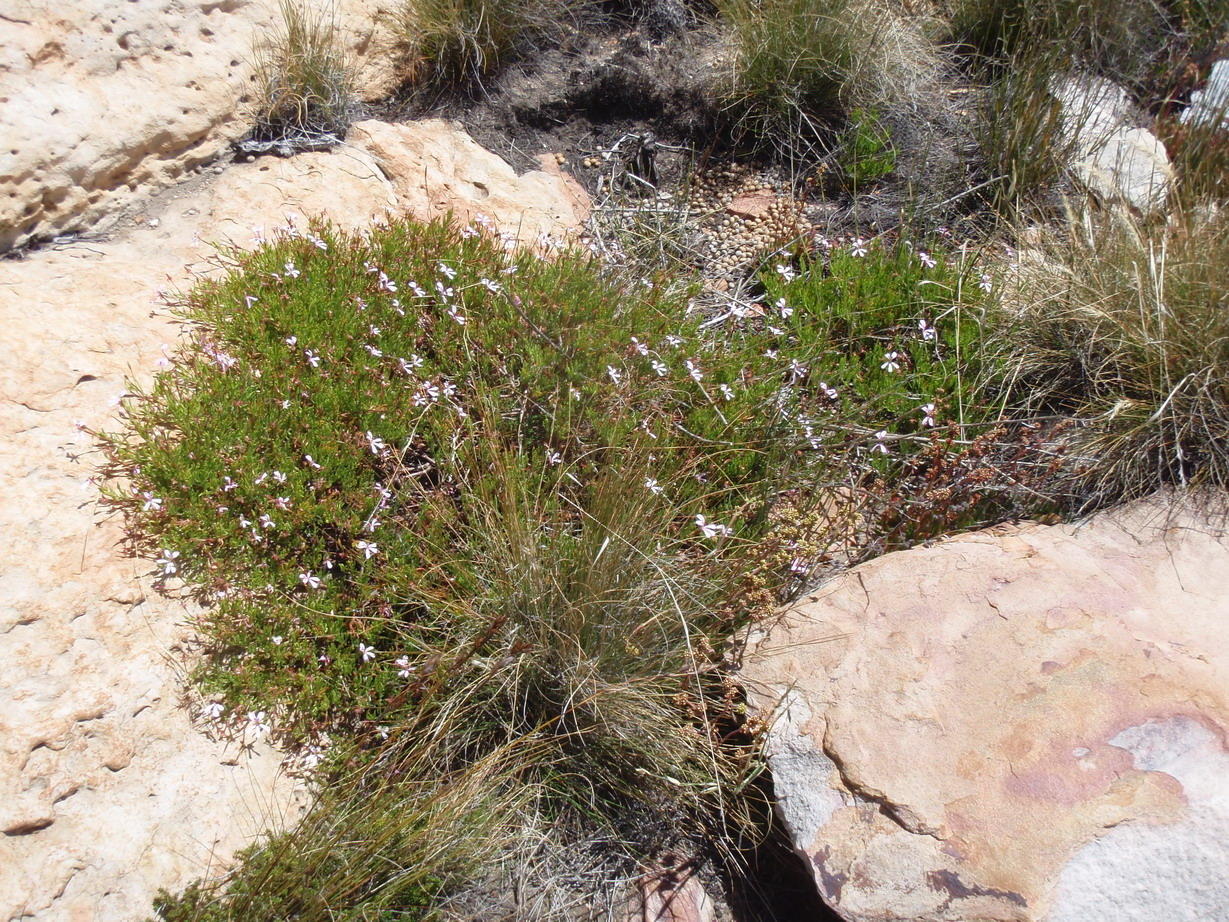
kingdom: Plantae
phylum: Tracheophyta
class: Magnoliopsida
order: Geraniales
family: Geraniaceae
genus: Pelargonium
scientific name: Pelargonium laevigatum
